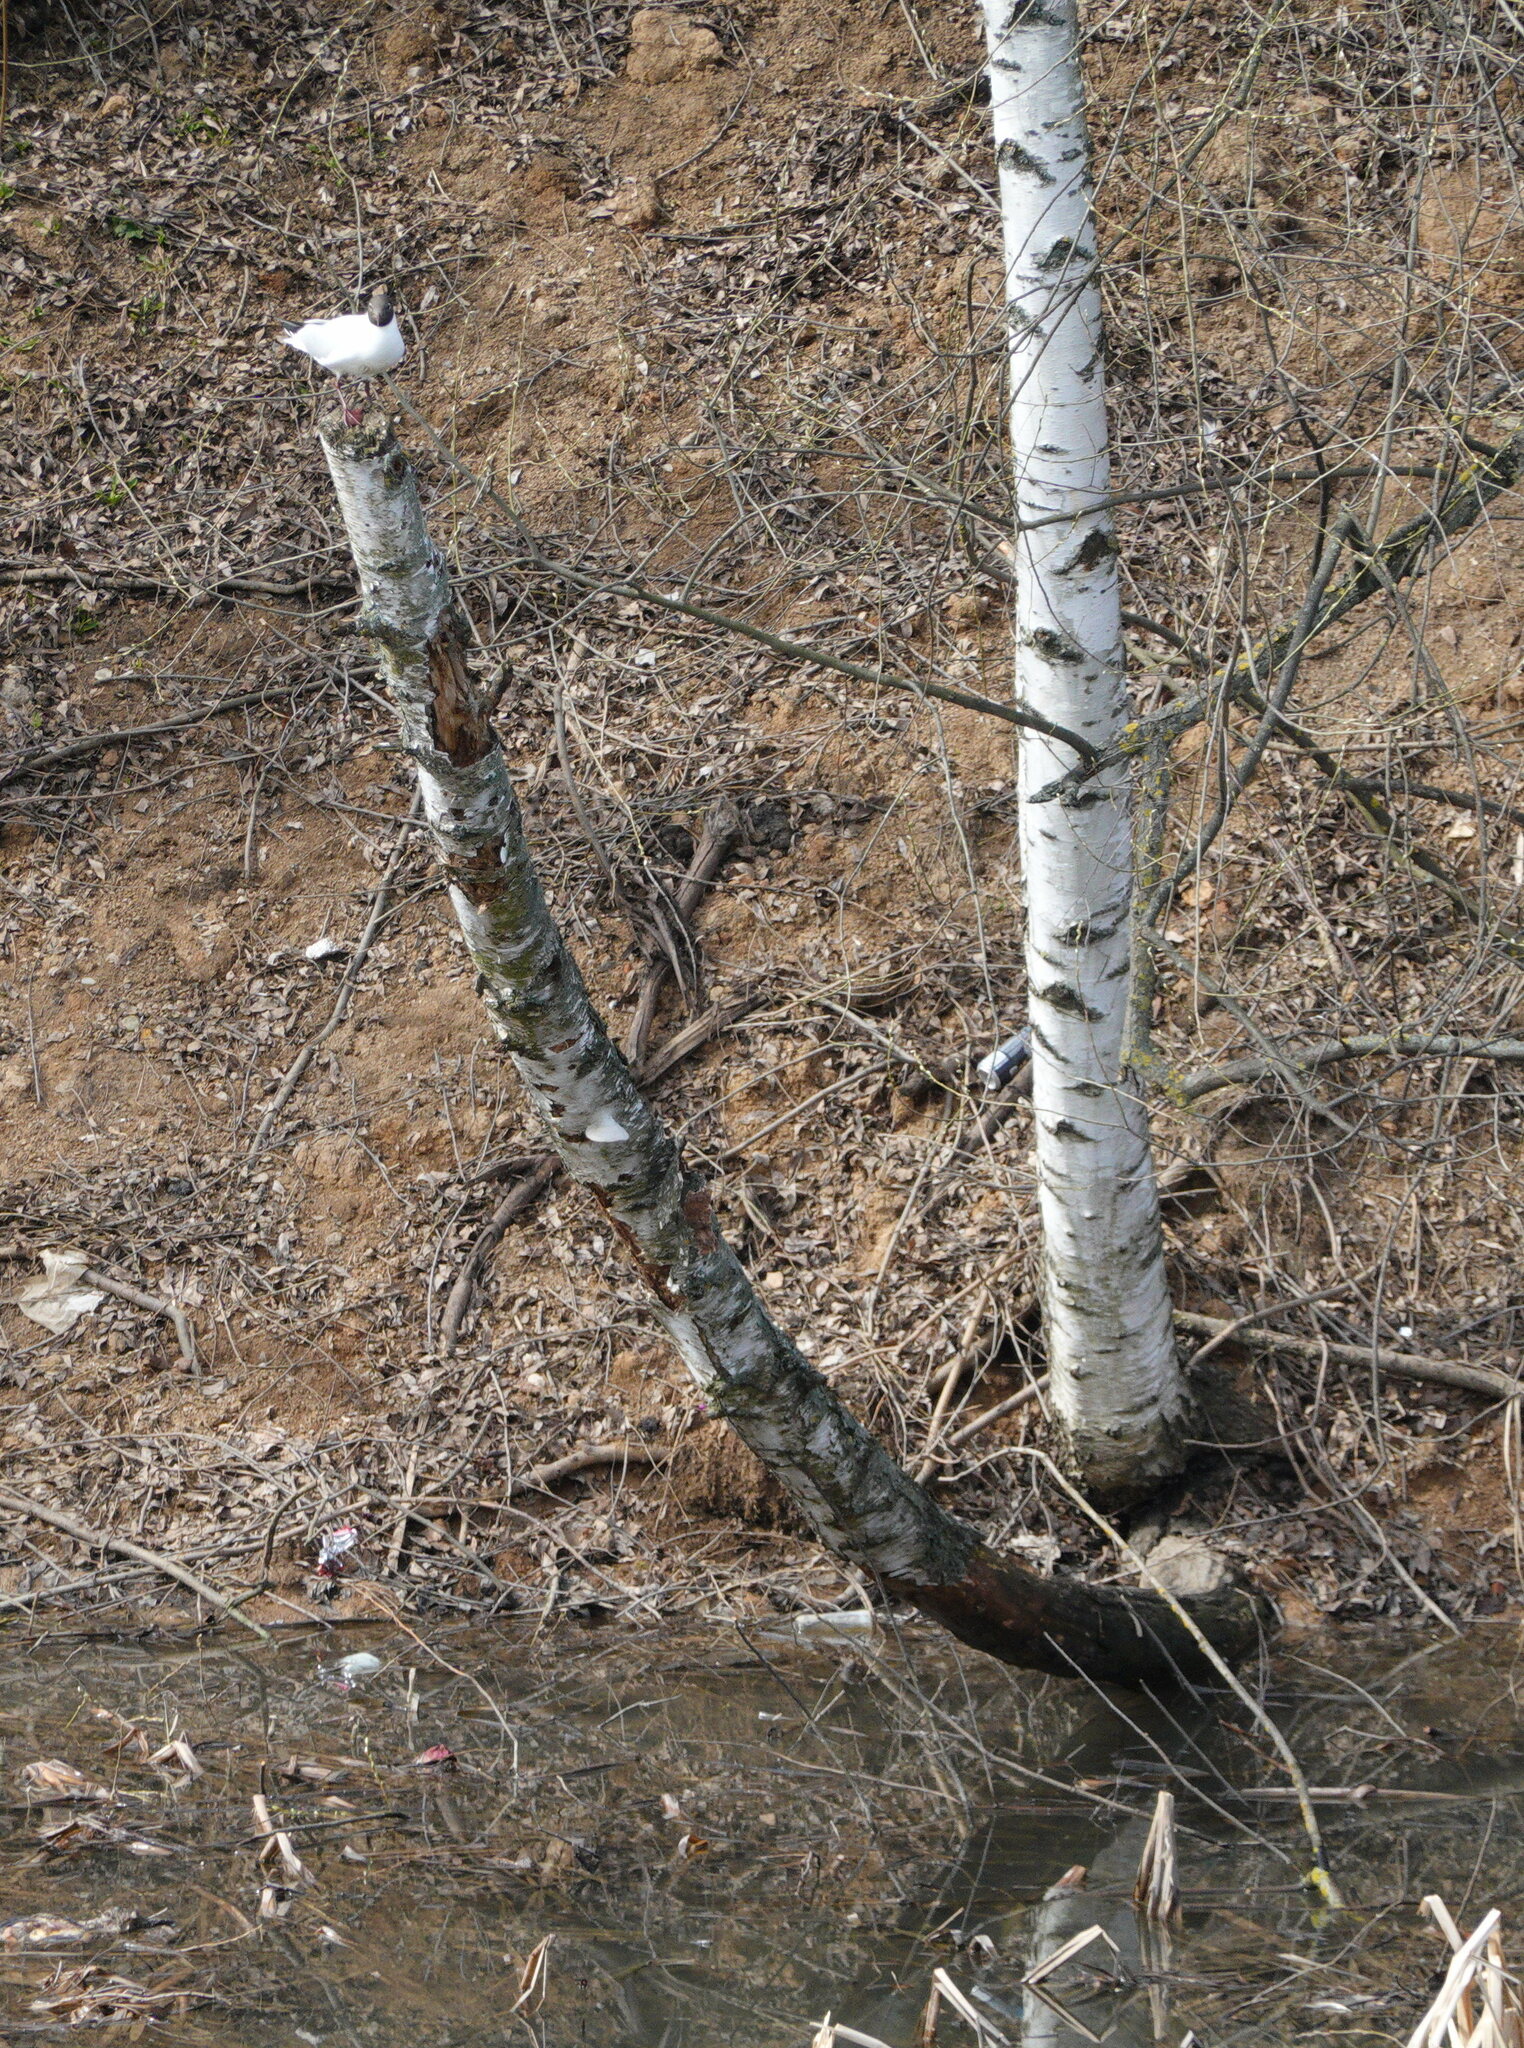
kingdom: Animalia
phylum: Chordata
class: Aves
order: Charadriiformes
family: Laridae
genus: Chroicocephalus
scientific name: Chroicocephalus ridibundus
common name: Black-headed gull
